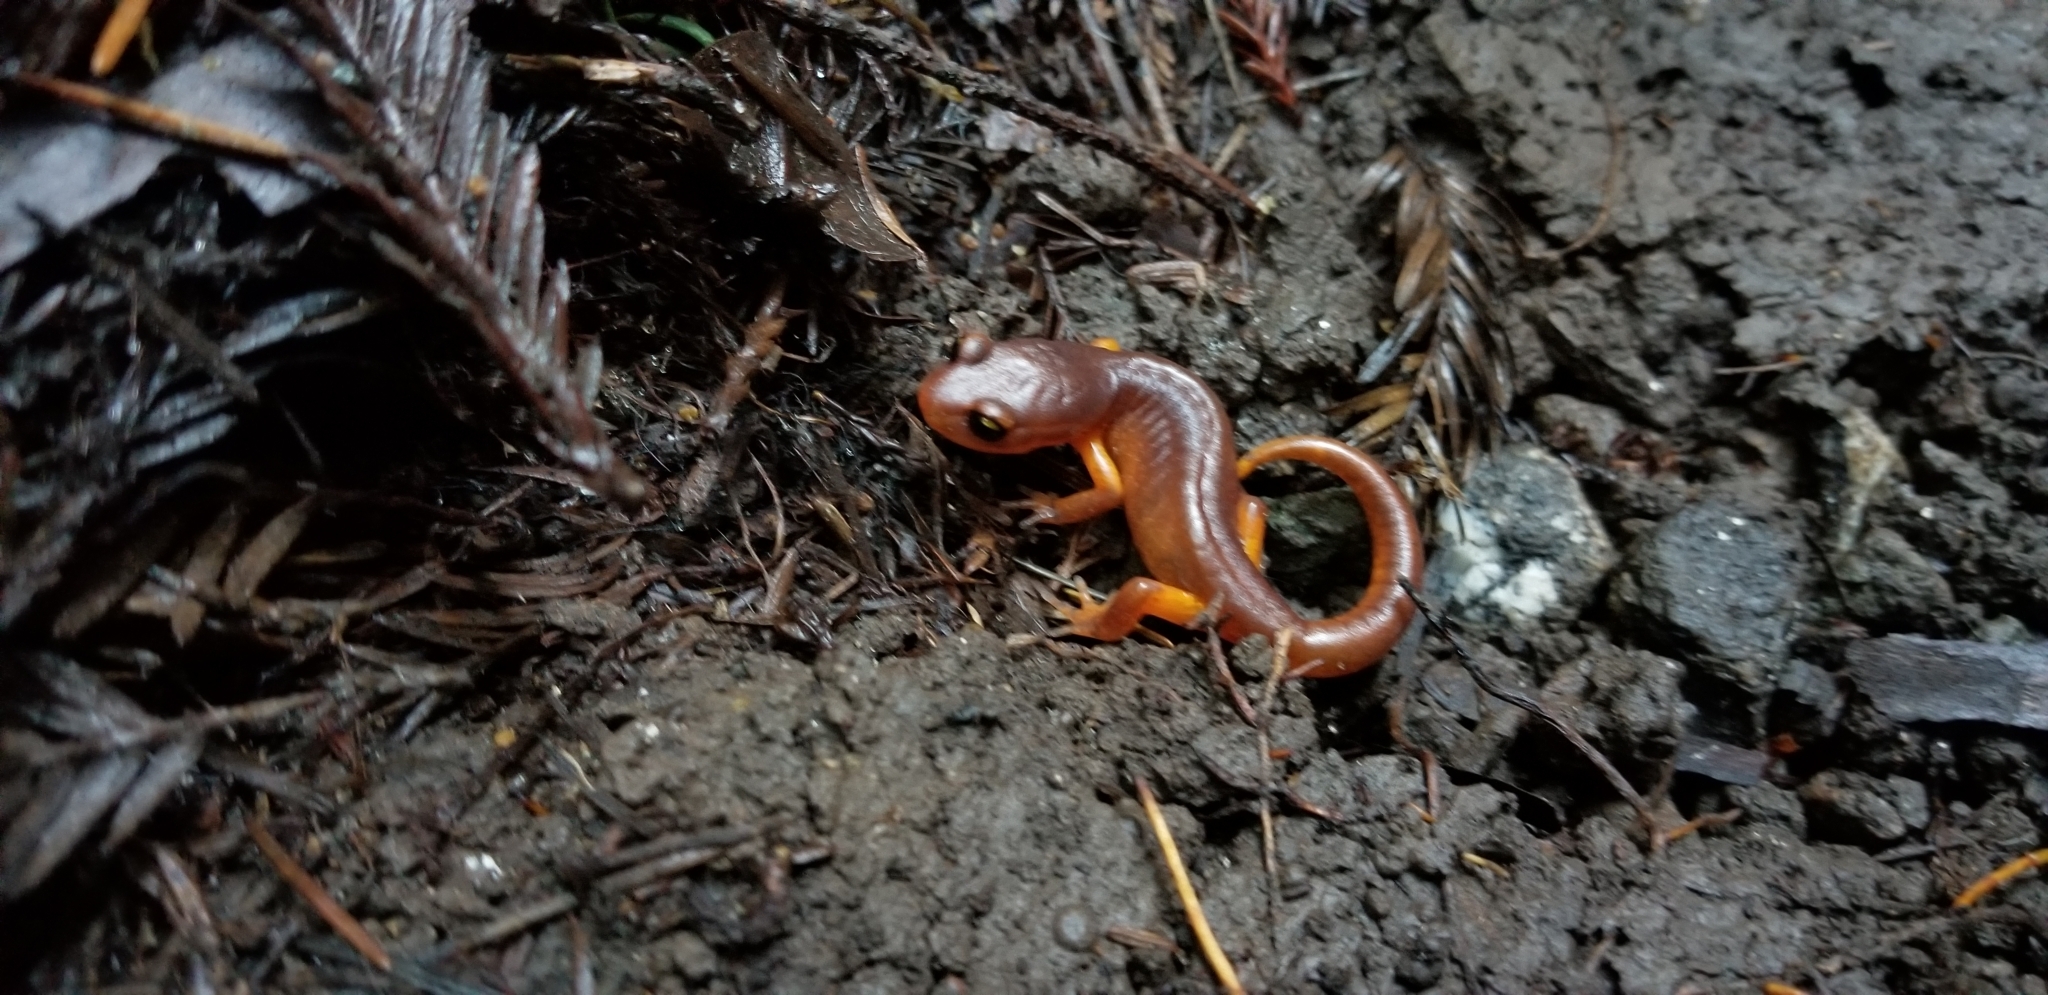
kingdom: Animalia
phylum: Chordata
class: Amphibia
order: Caudata
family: Plethodontidae
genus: Ensatina
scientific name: Ensatina eschscholtzii
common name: Ensatina
